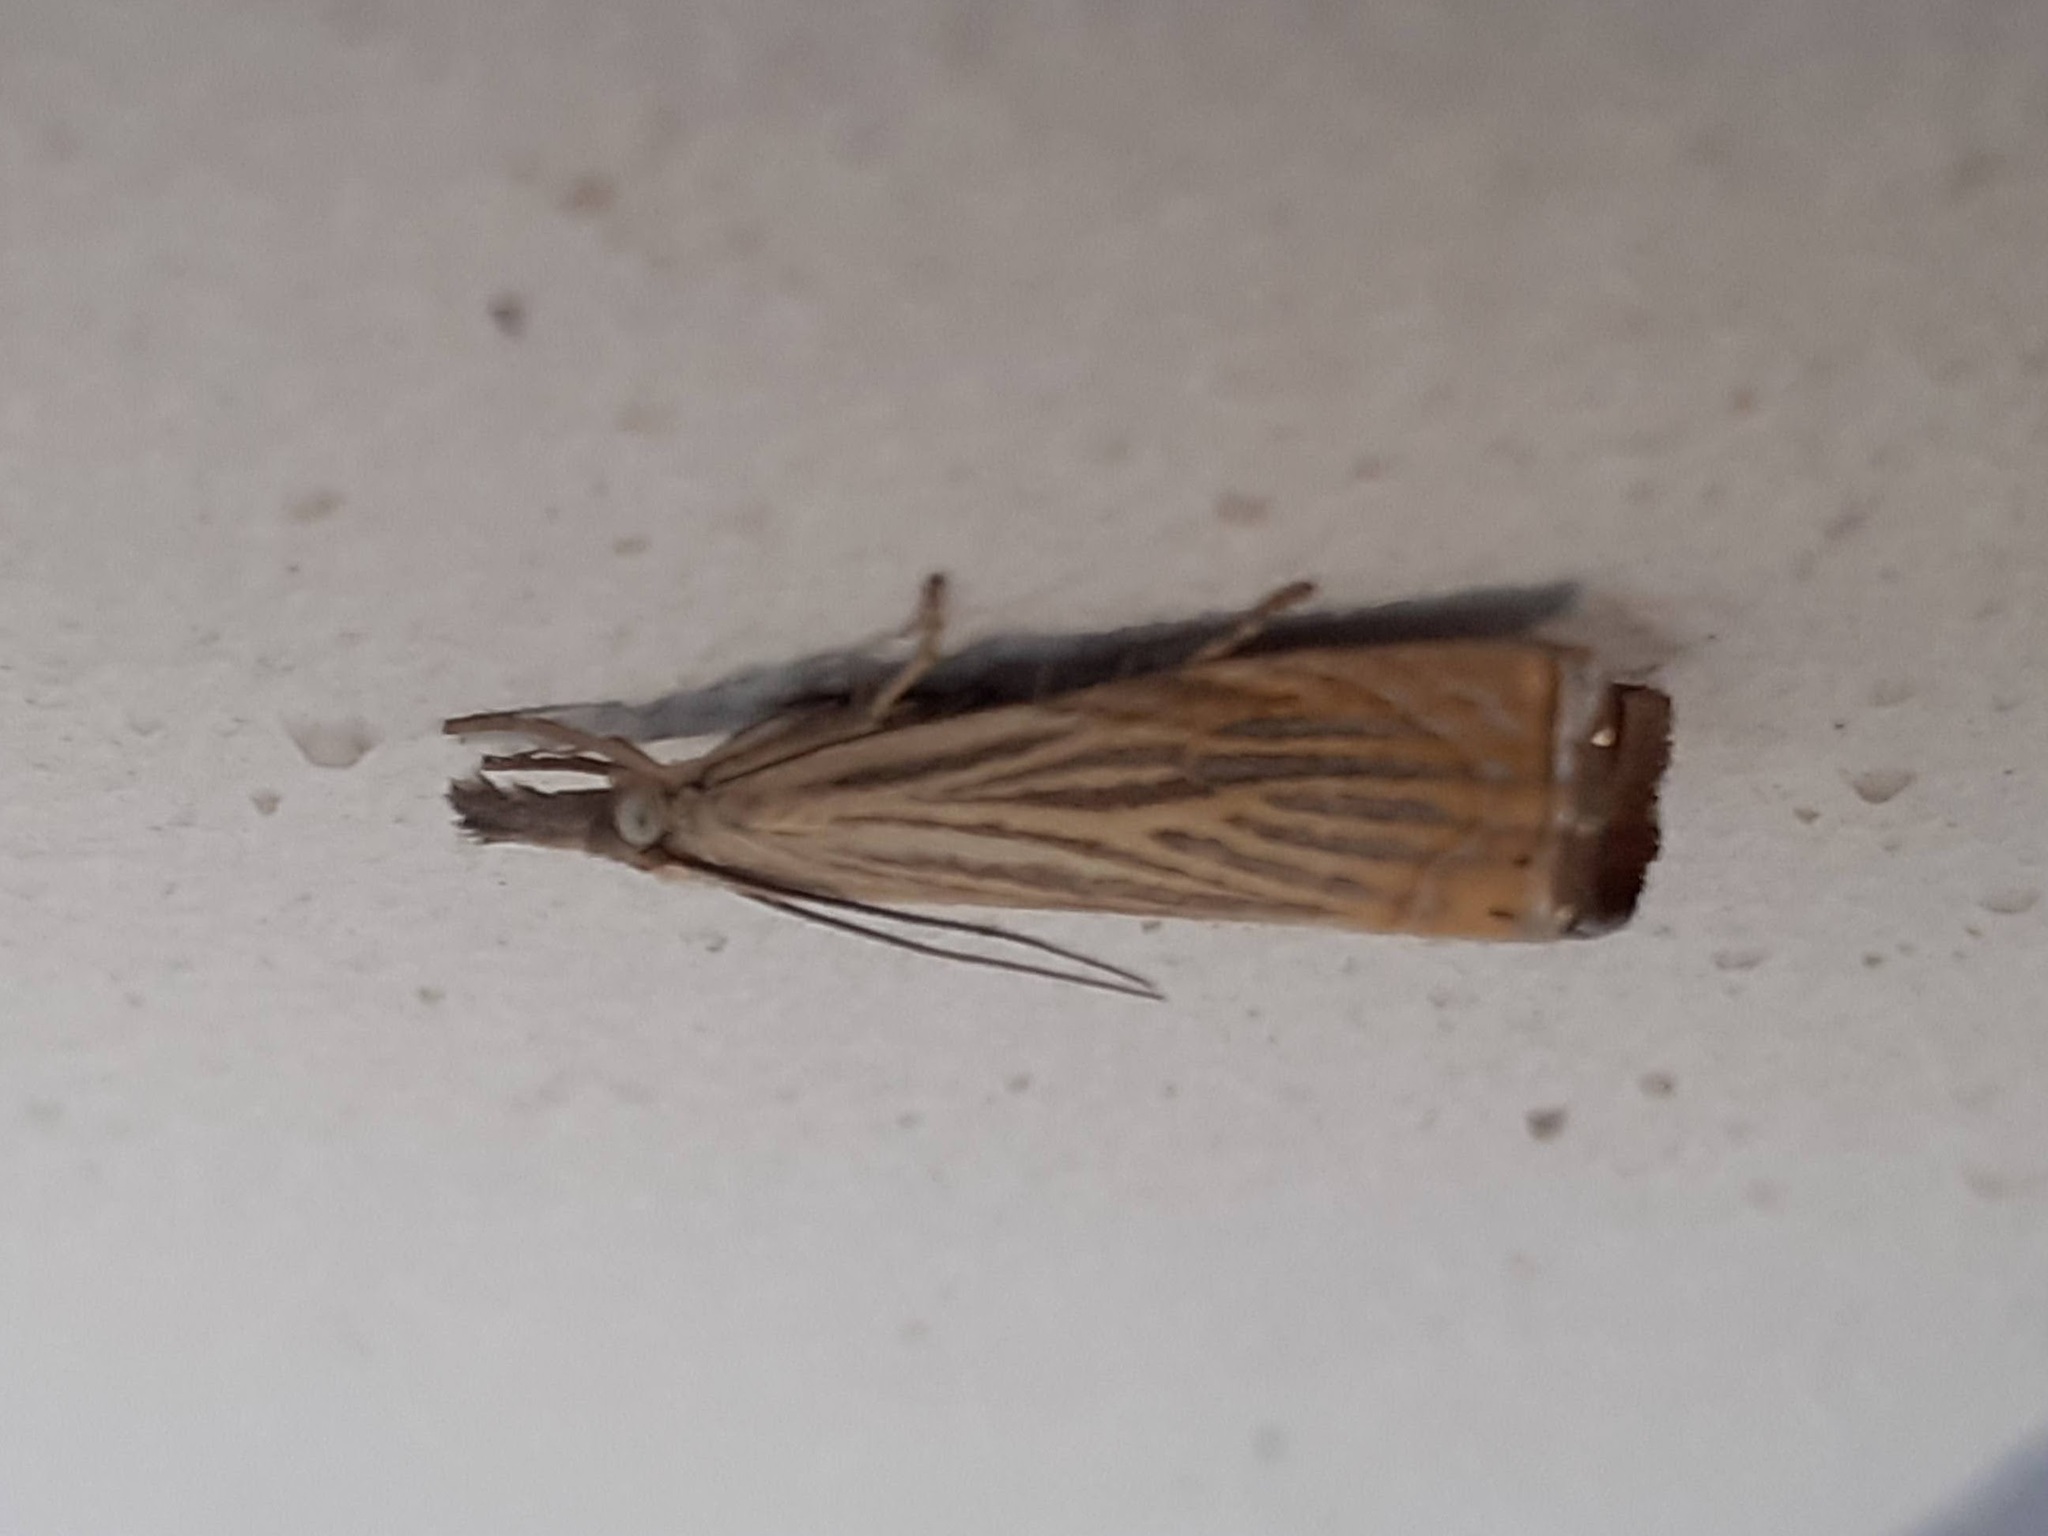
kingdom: Animalia
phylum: Arthropoda
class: Insecta
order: Lepidoptera
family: Crambidae
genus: Chrysoteuchia
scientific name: Chrysoteuchia culmella
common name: Garden grass-veneer
